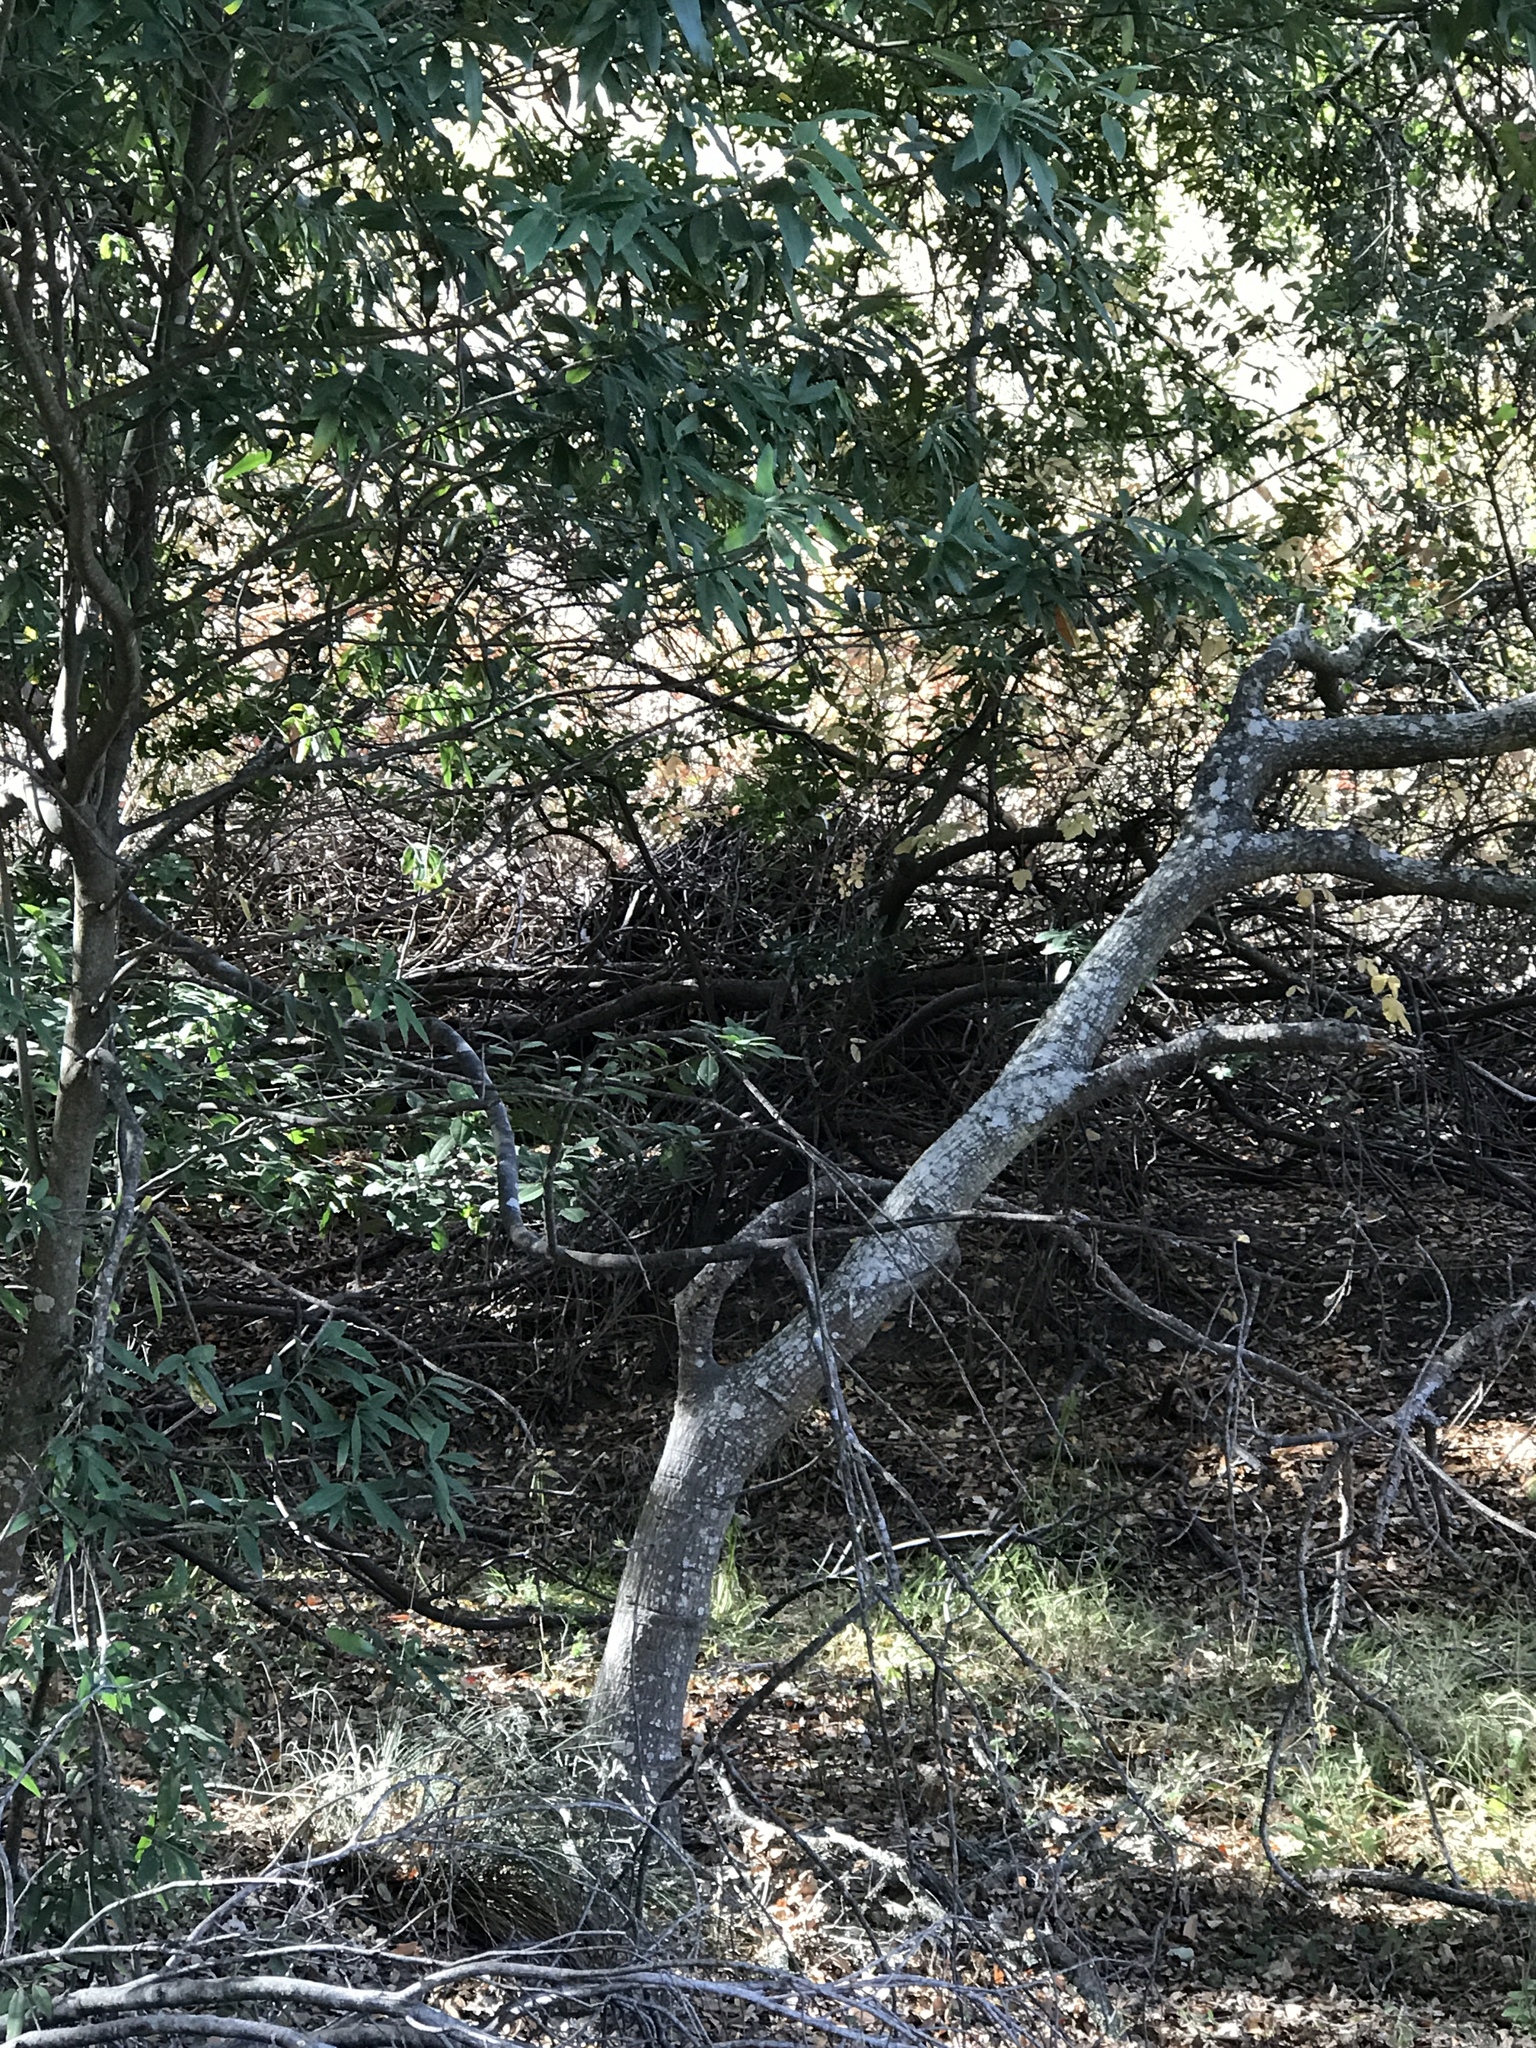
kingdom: Animalia
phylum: Chordata
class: Mammalia
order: Rodentia
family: Cricetidae
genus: Neotoma
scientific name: Neotoma fuscipes
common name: Dusky-footed woodrat
